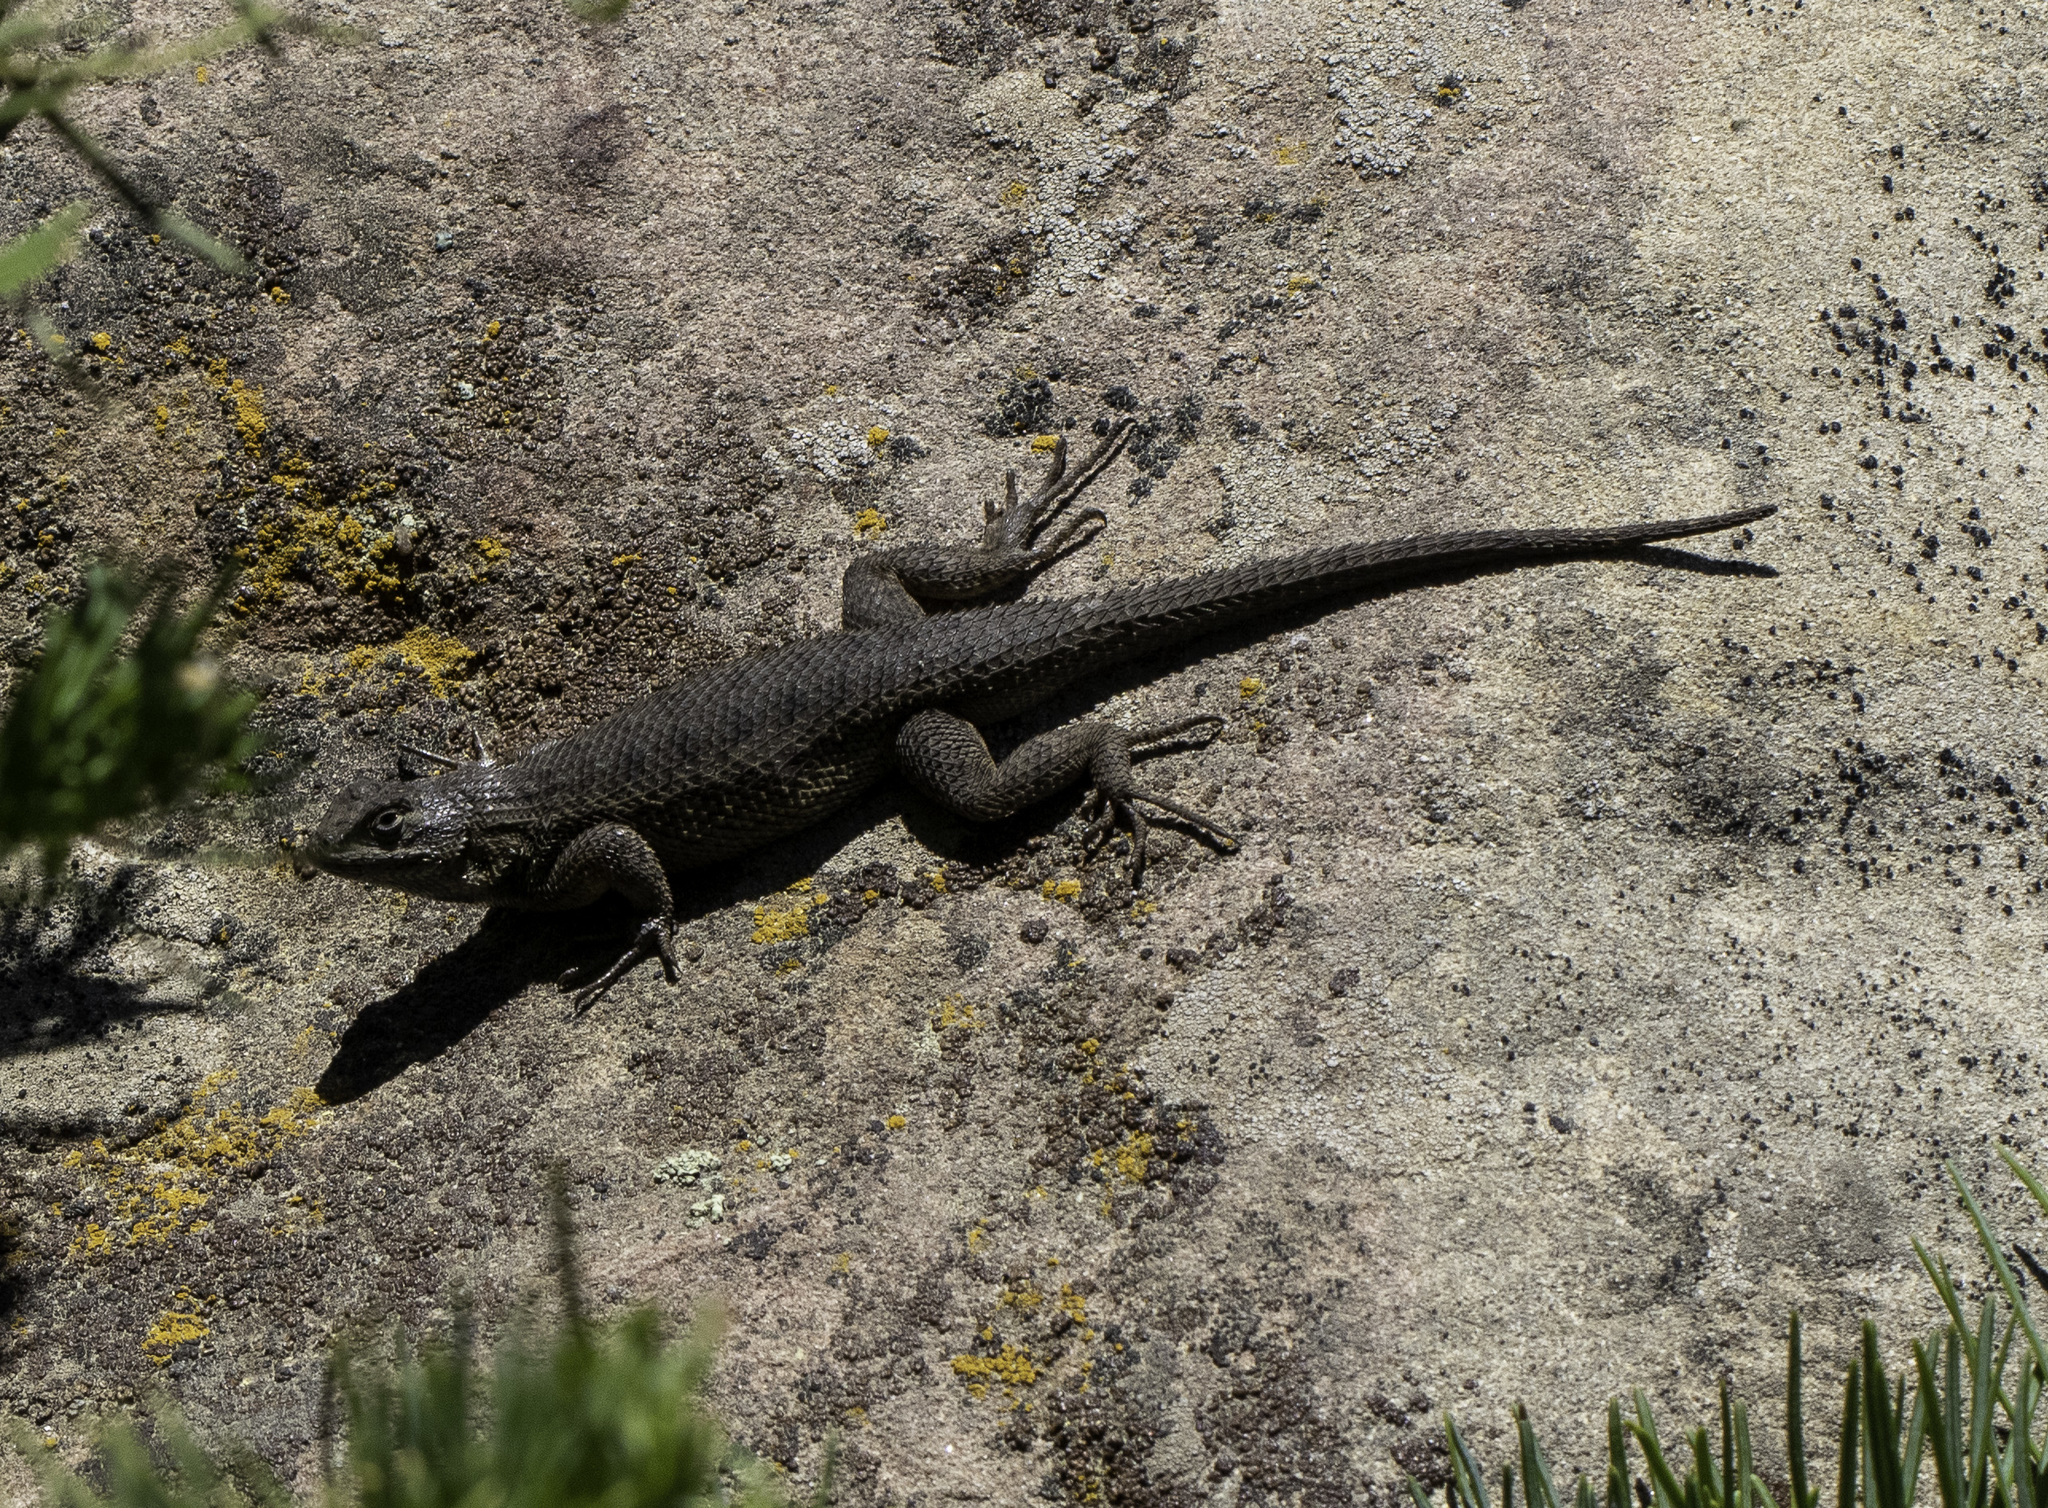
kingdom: Animalia
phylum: Chordata
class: Squamata
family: Phrynosomatidae
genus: Sceloporus
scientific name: Sceloporus occidentalis
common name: Western fence lizard
